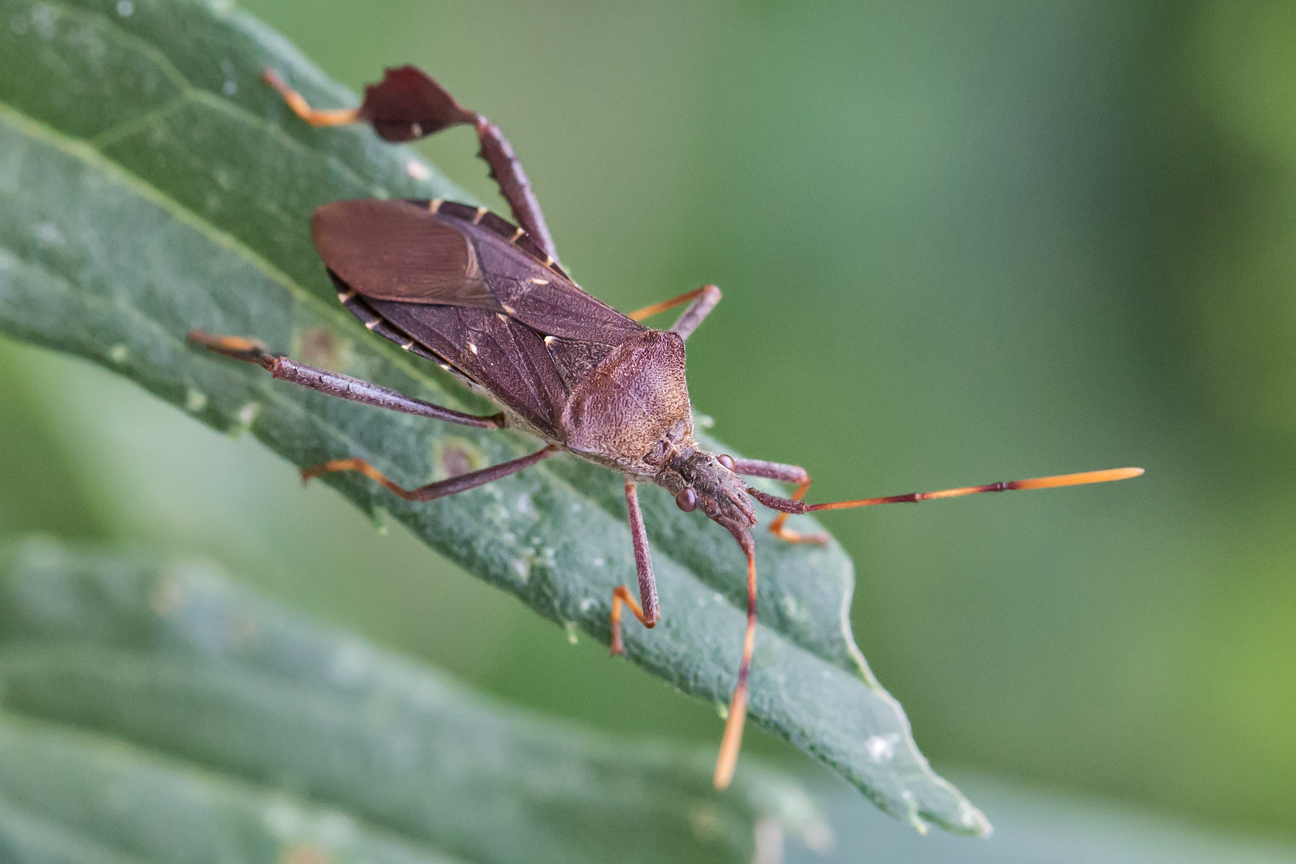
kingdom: Animalia
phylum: Arthropoda
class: Insecta
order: Hemiptera
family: Coreidae
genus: Leptoglossus
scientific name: Leptoglossus oppositus
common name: Northern leaf-footed bug
